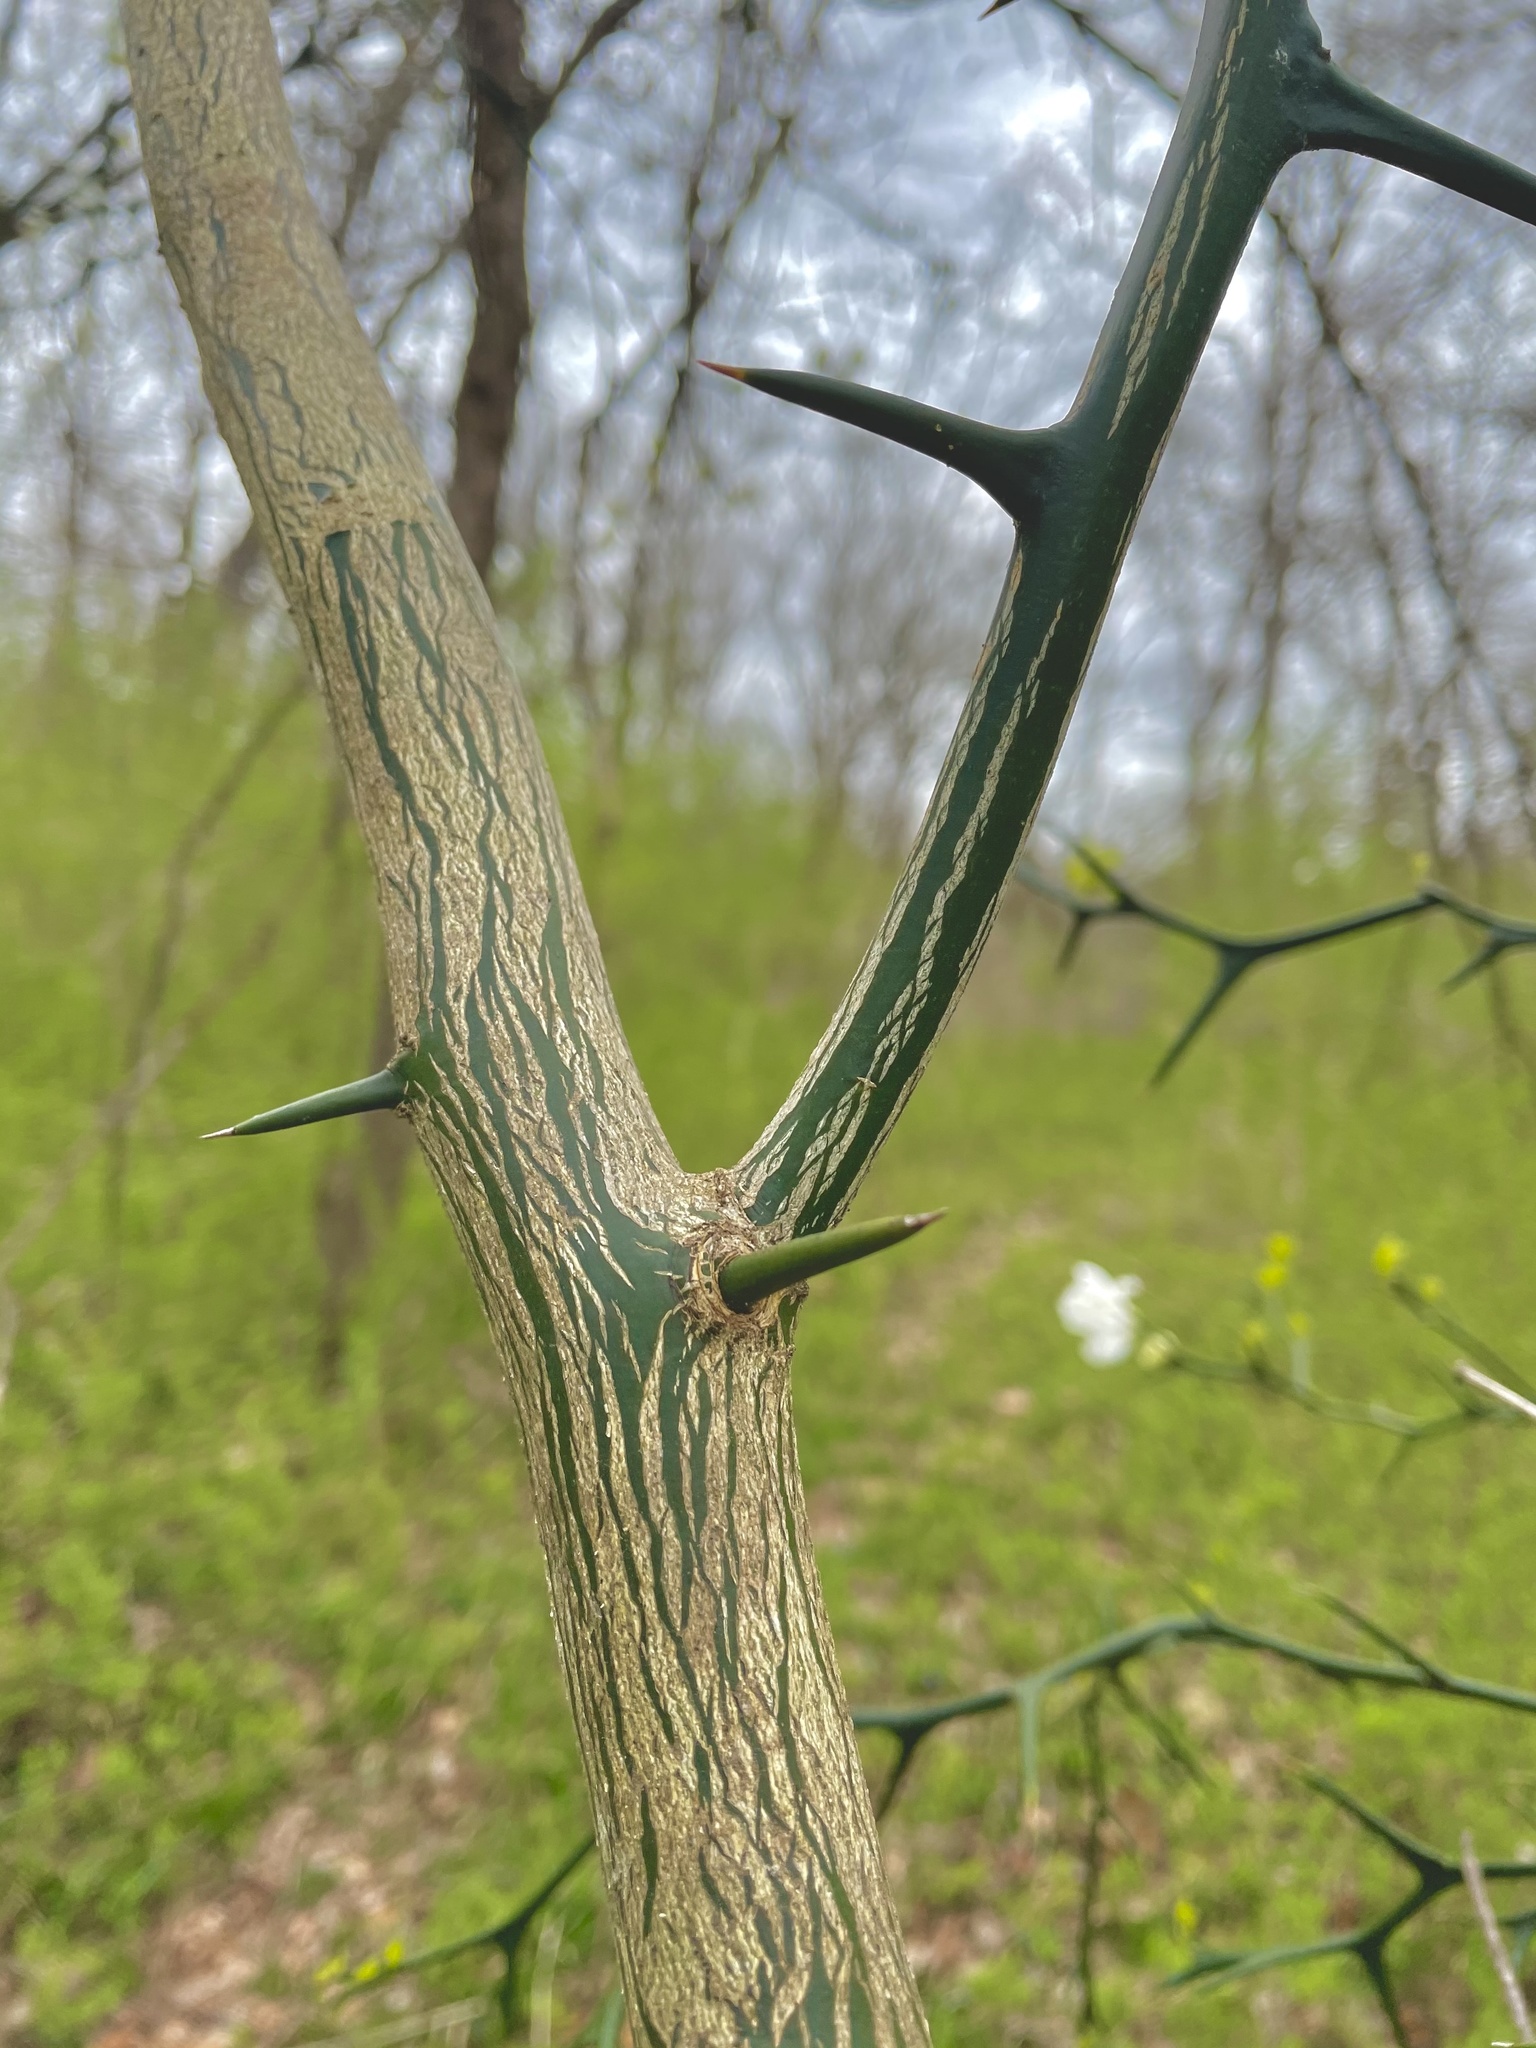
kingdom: Plantae
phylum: Tracheophyta
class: Magnoliopsida
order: Sapindales
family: Rutaceae
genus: Citrus
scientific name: Citrus trifoliata
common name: Japanese bitter-orange
